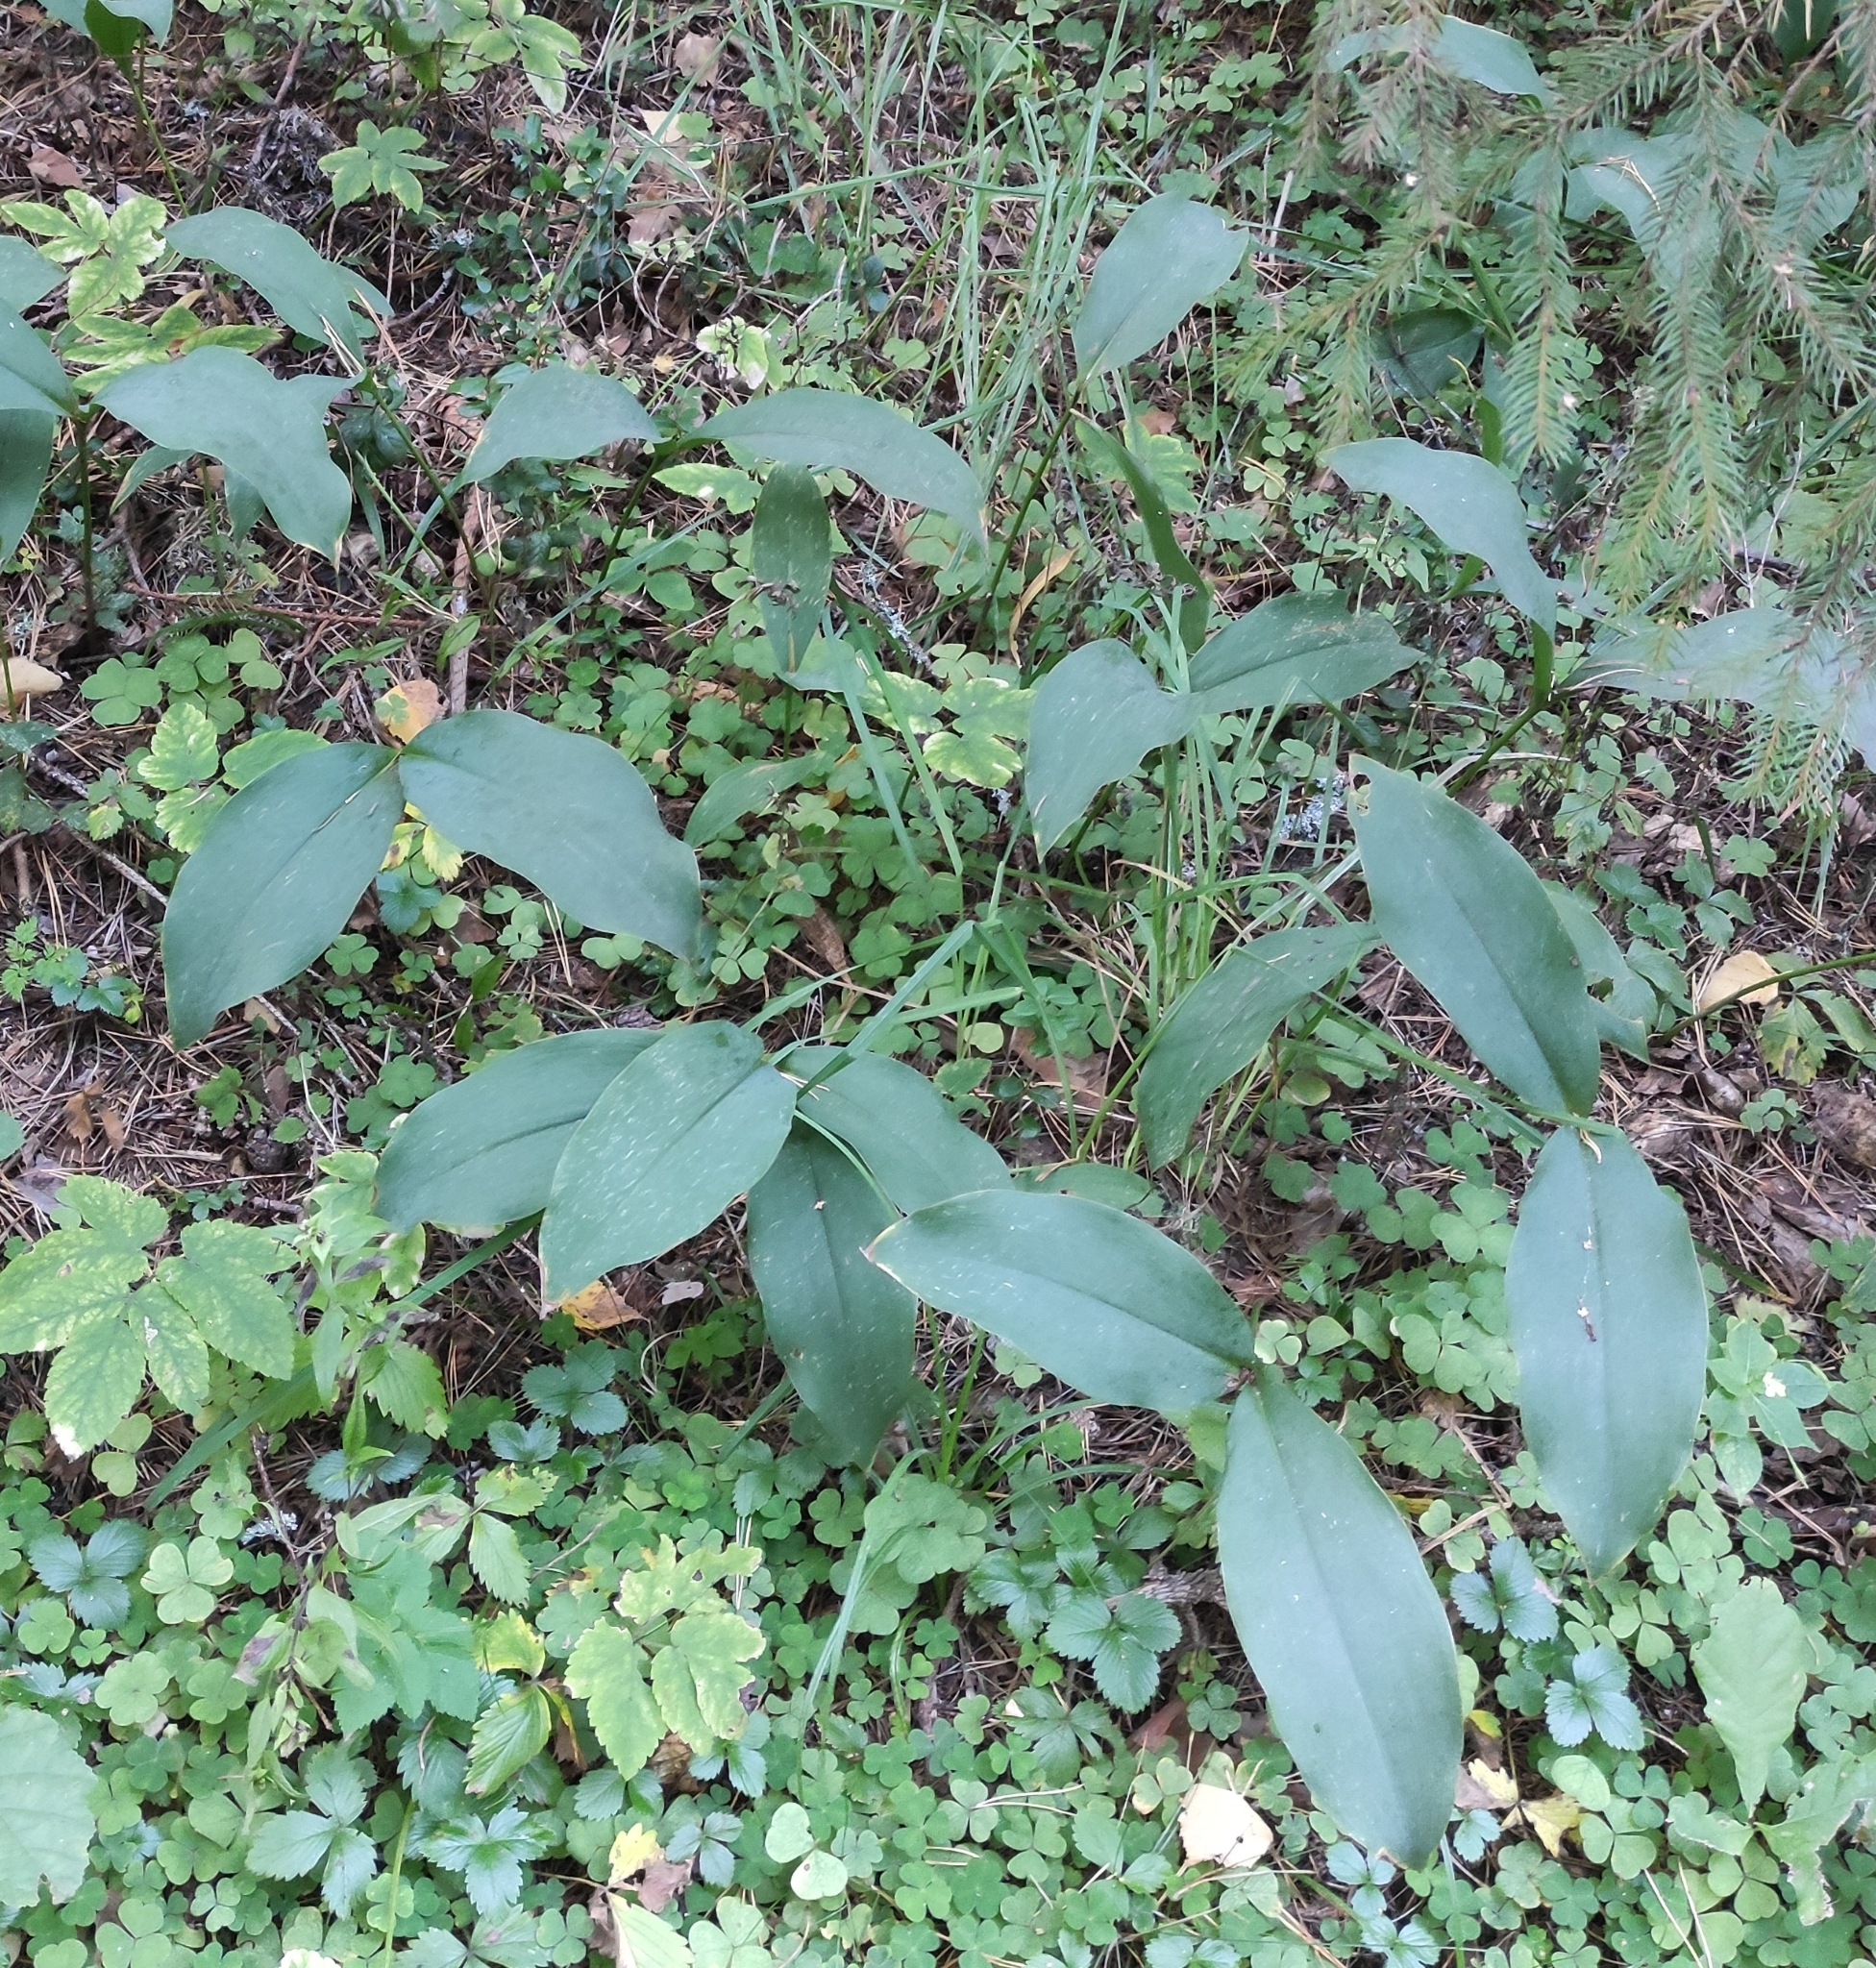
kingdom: Plantae
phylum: Tracheophyta
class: Liliopsida
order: Asparagales
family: Asparagaceae
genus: Convallaria
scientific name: Convallaria majalis
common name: Lily-of-the-valley
